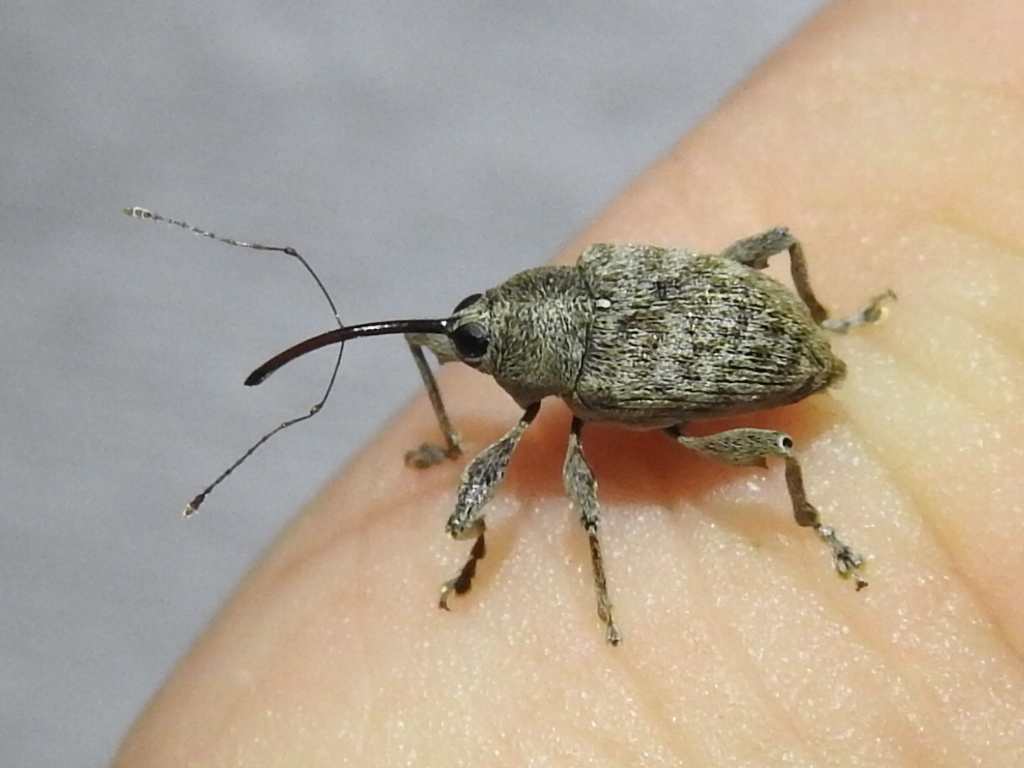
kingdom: Animalia
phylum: Arthropoda
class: Insecta
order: Coleoptera
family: Curculionidae
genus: Curculio
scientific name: Curculio
